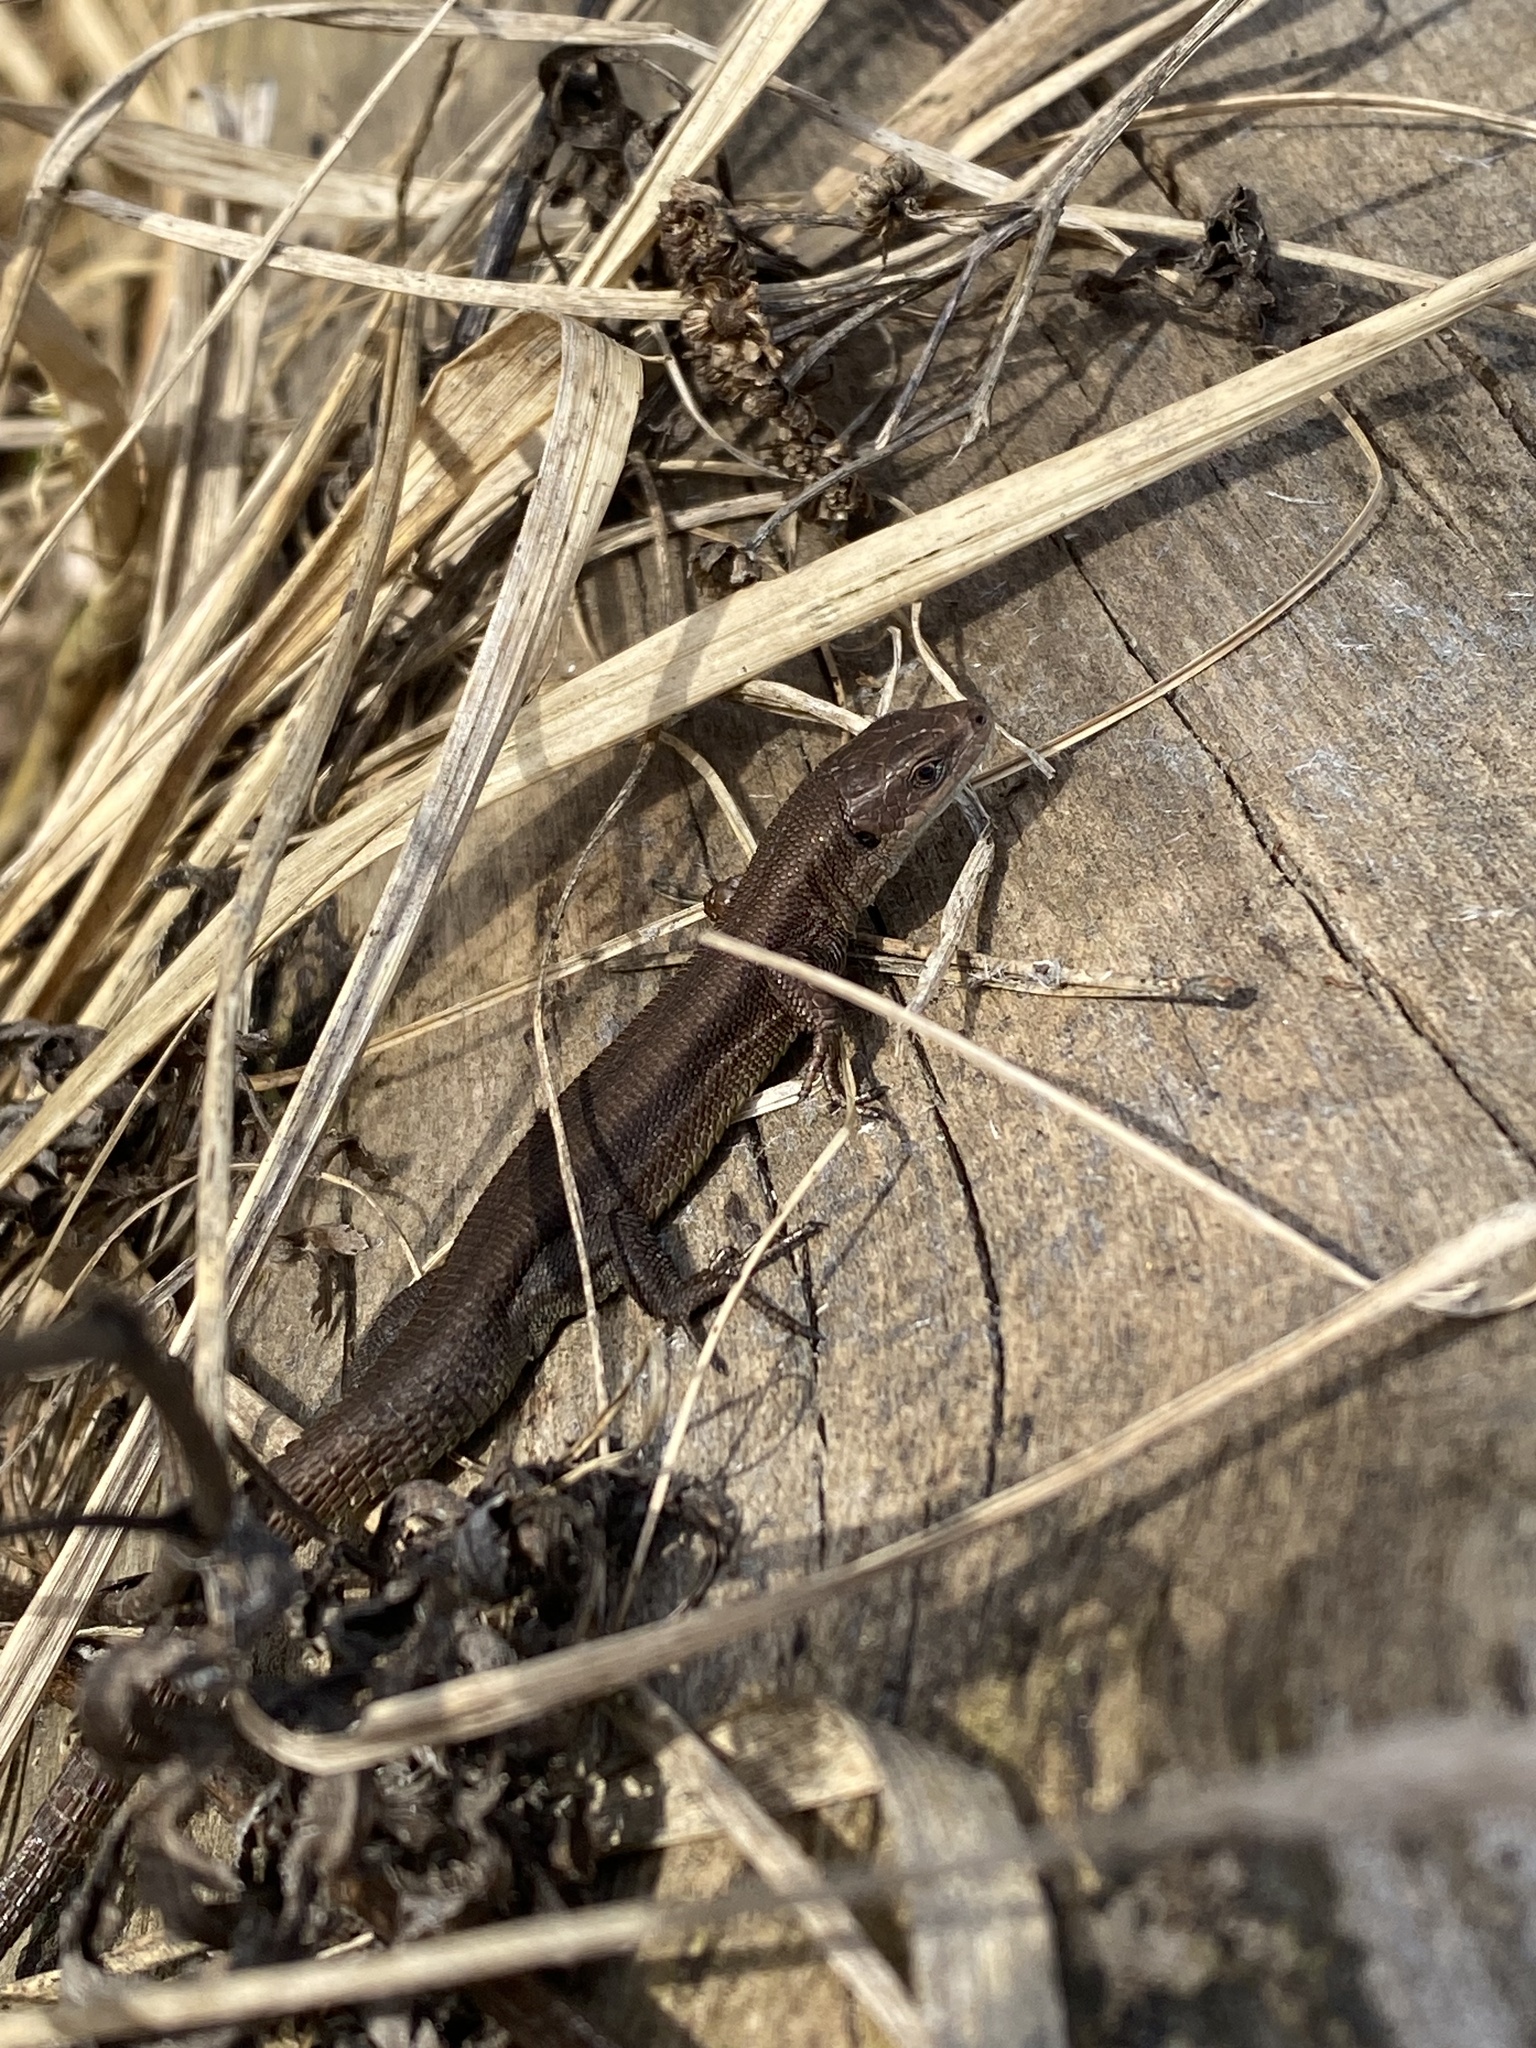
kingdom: Animalia
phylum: Chordata
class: Squamata
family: Lacertidae
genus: Zootoca
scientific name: Zootoca vivipara
